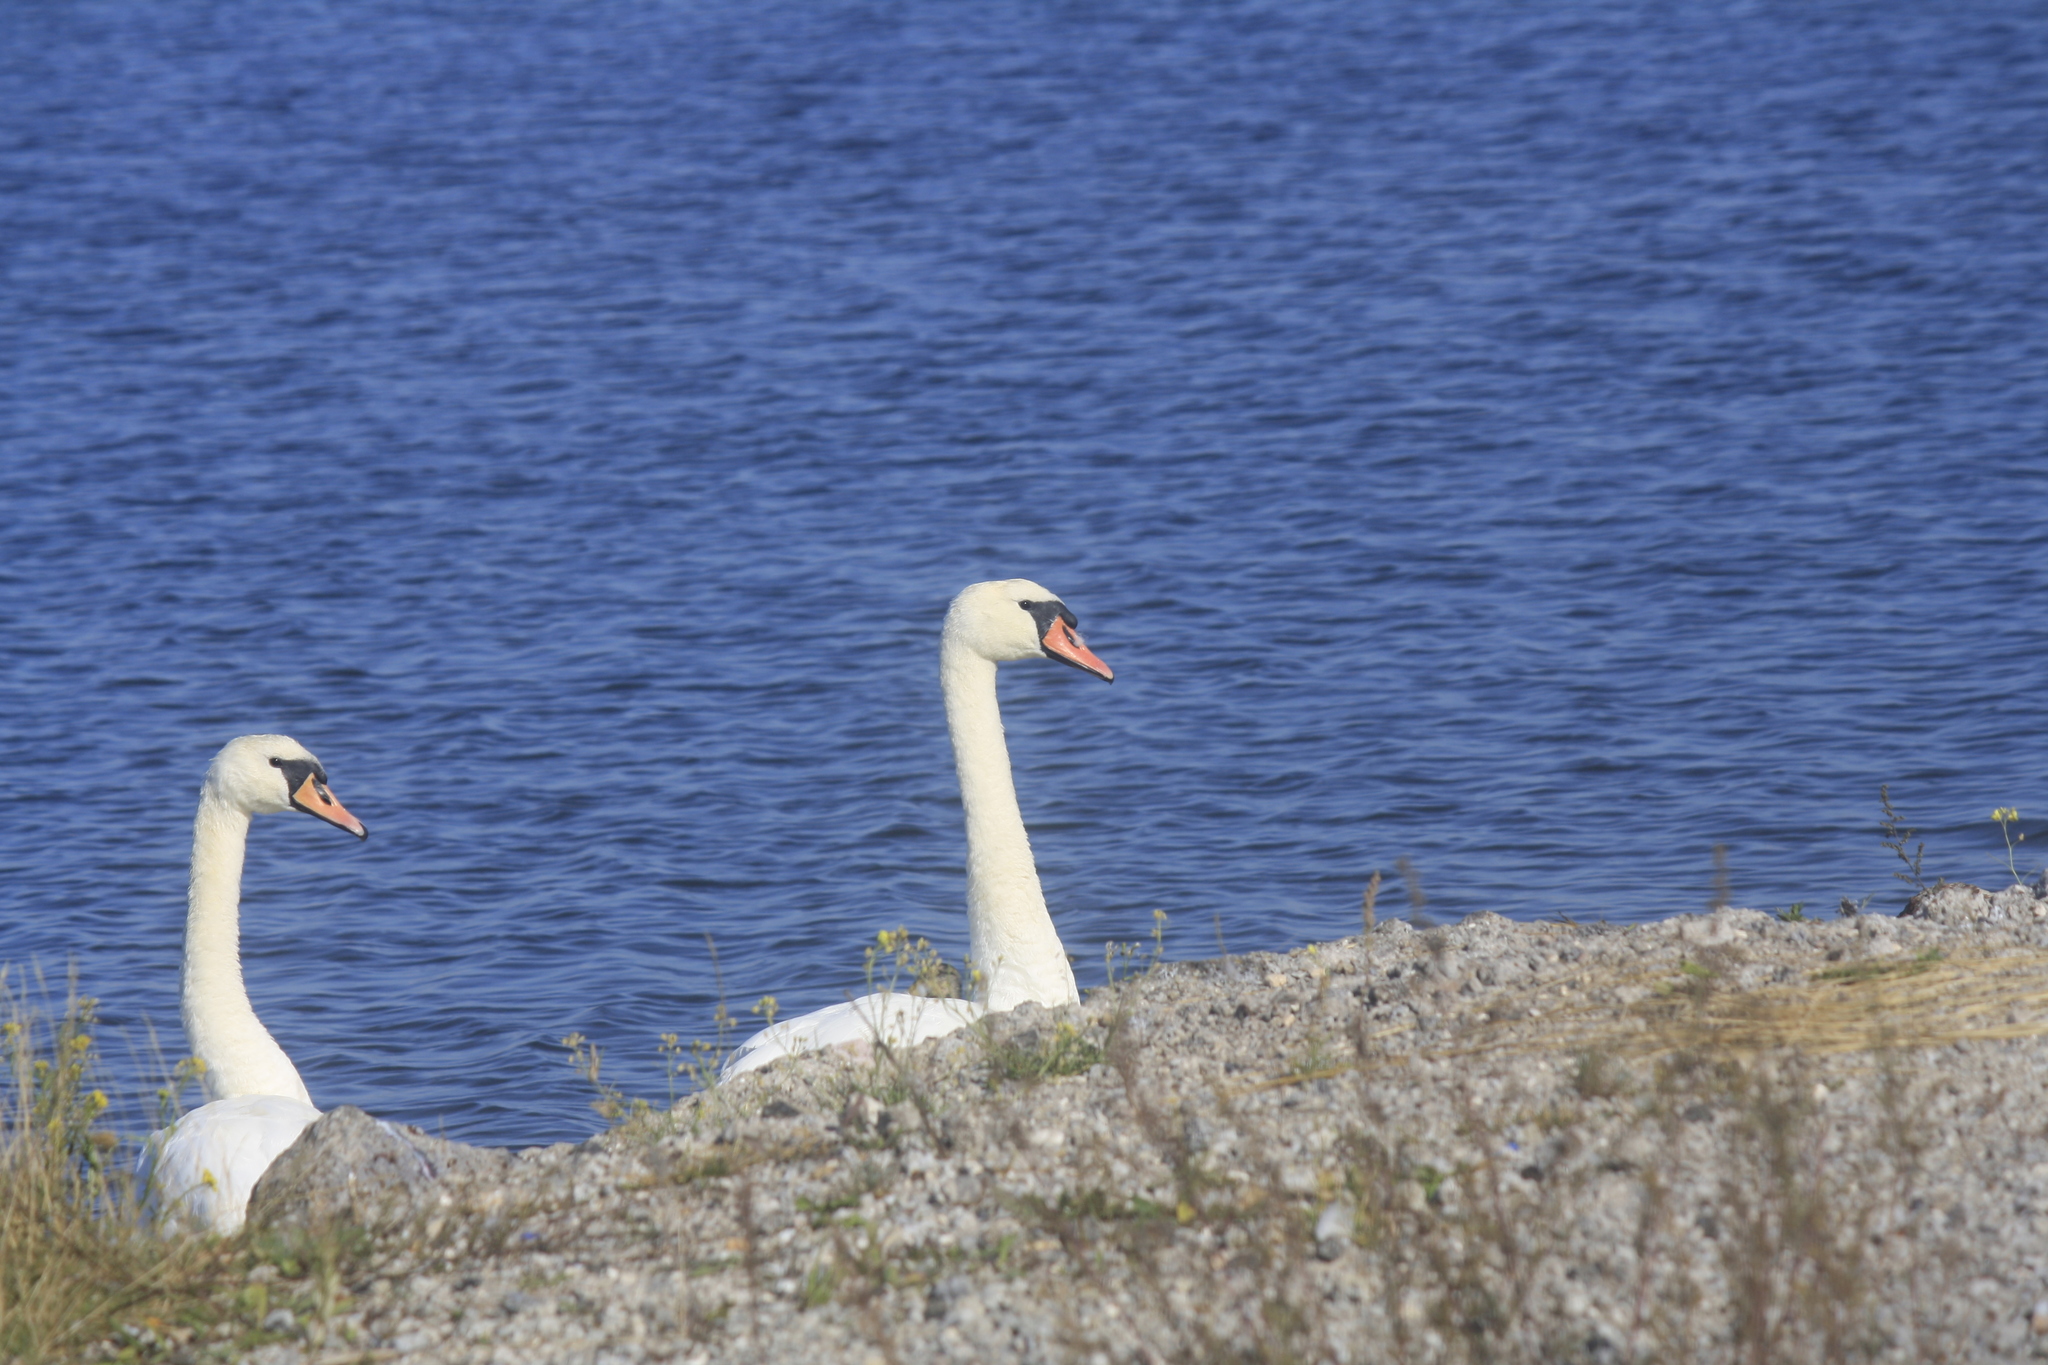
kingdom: Animalia
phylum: Chordata
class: Aves
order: Anseriformes
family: Anatidae
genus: Cygnus
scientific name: Cygnus olor
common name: Mute swan
